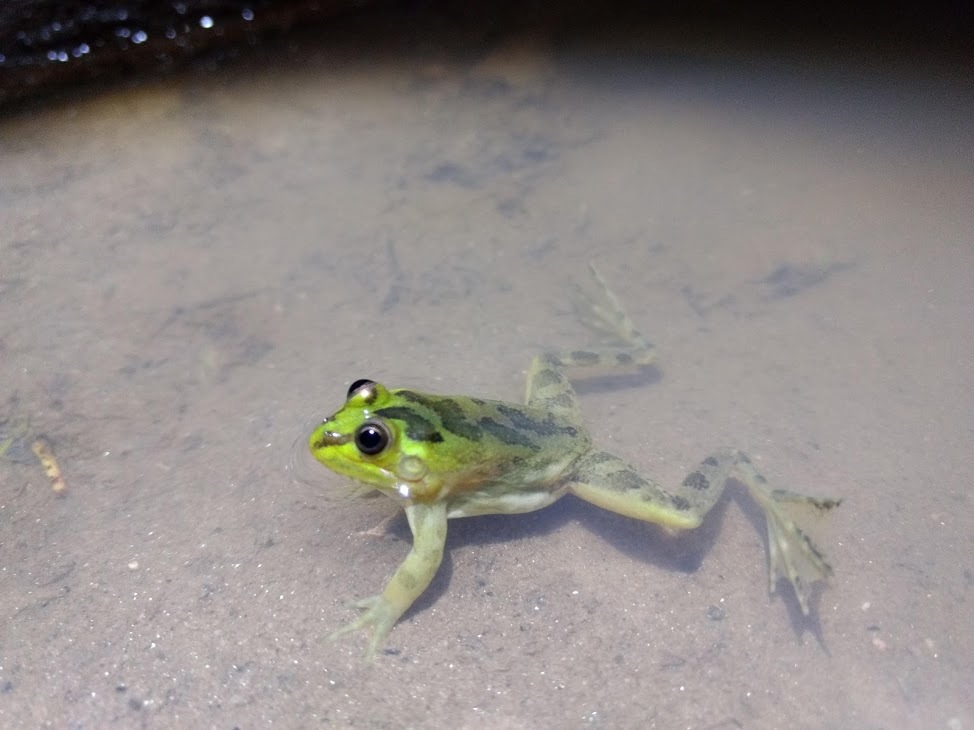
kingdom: Animalia
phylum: Chordata
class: Amphibia
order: Anura
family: Hylidae
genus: Pseudis
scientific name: Pseudis minuta
